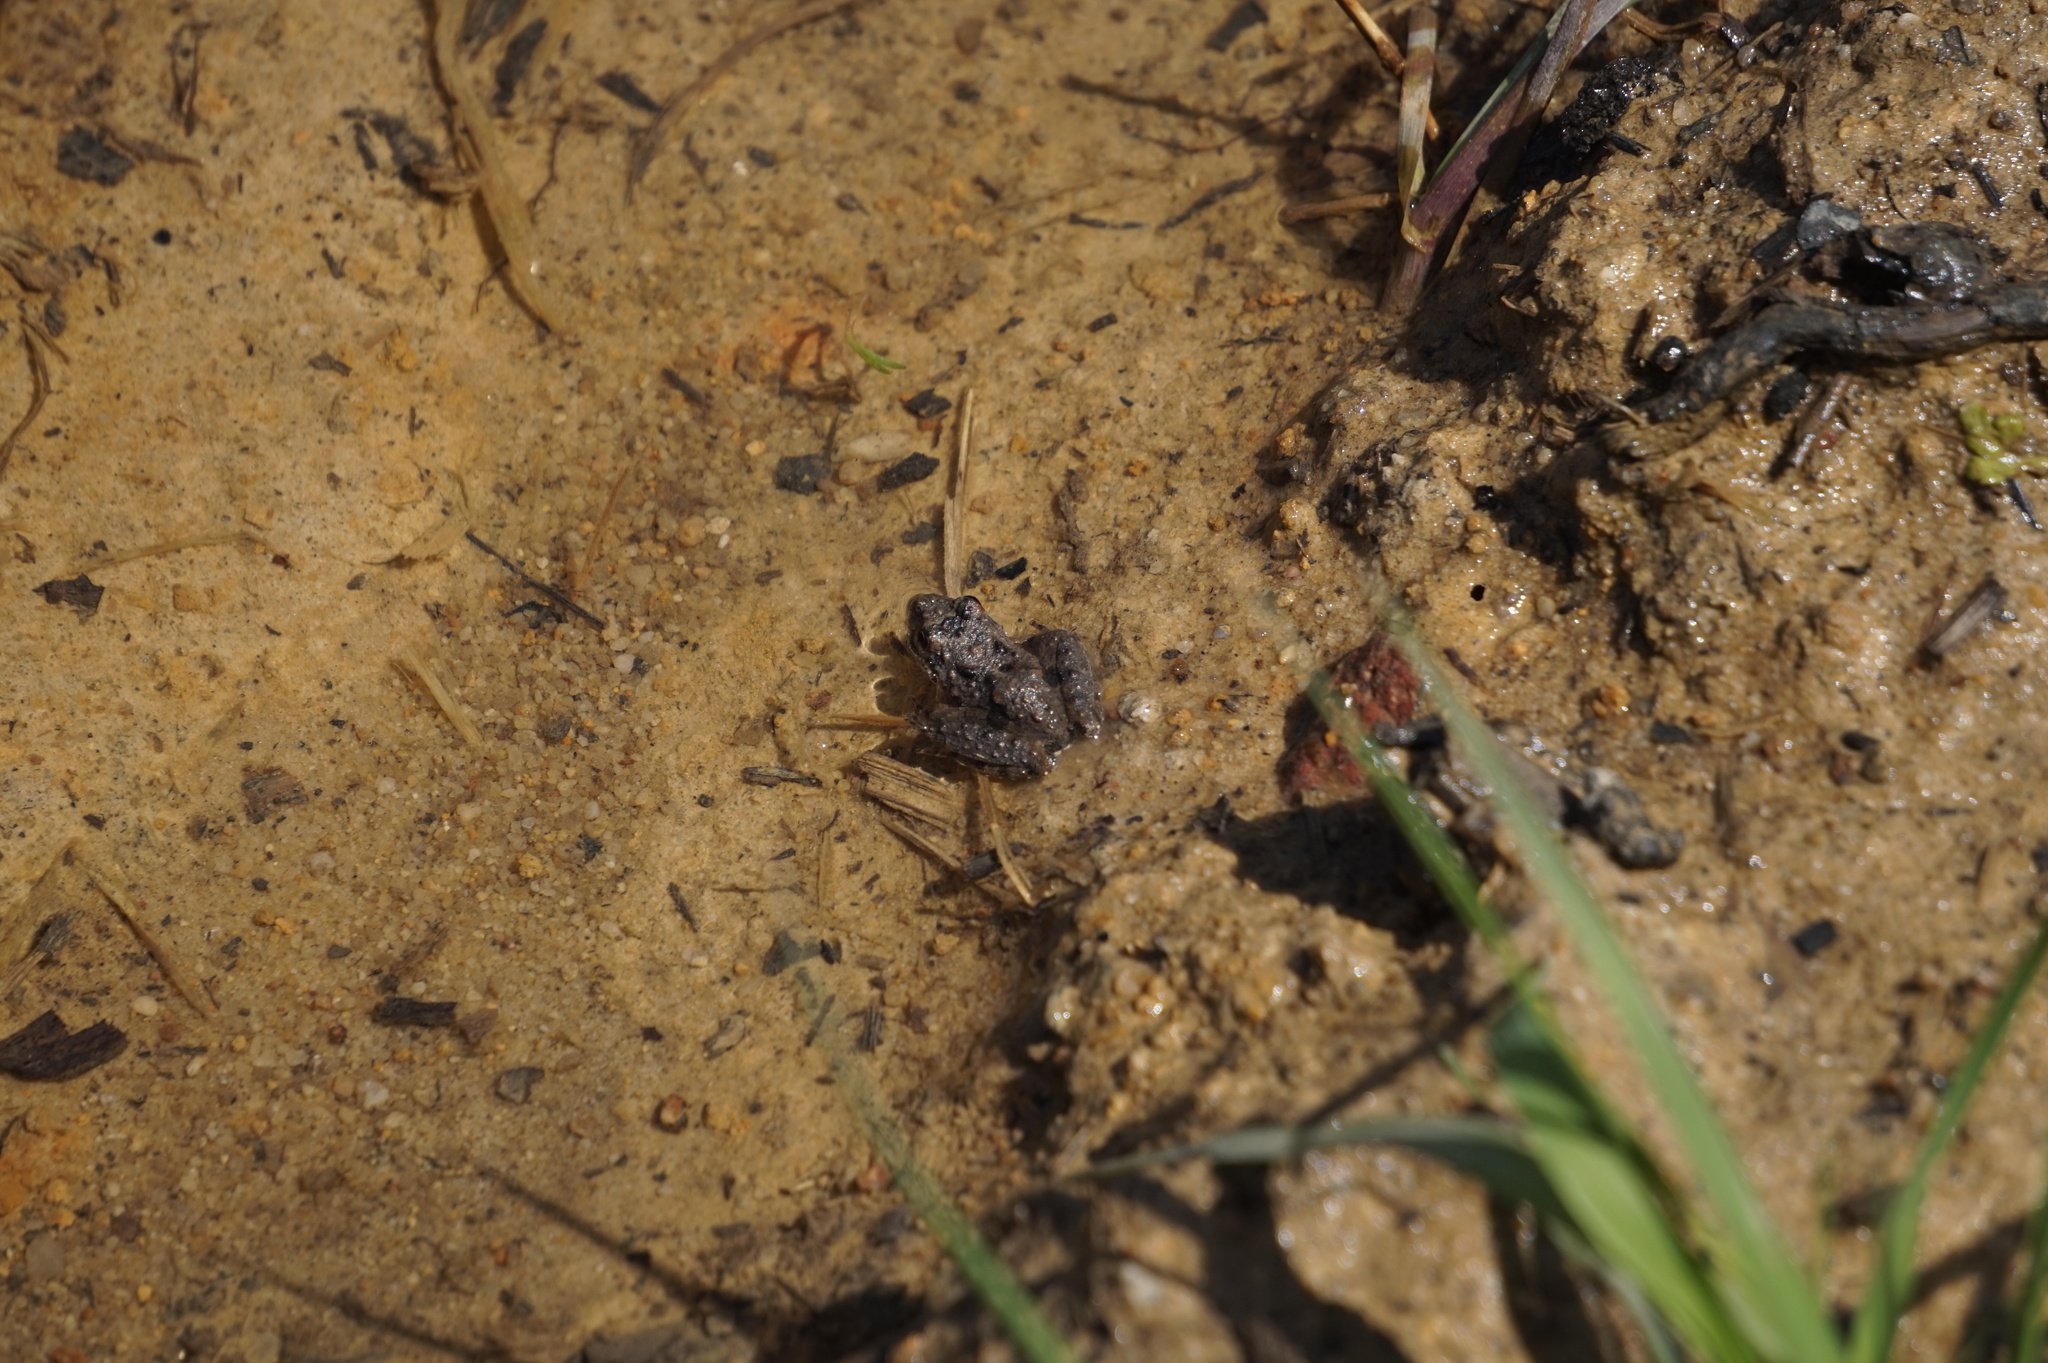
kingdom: Animalia
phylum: Chordata
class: Amphibia
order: Anura
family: Hylidae
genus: Acris
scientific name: Acris crepitans
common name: Northern cricket frog
